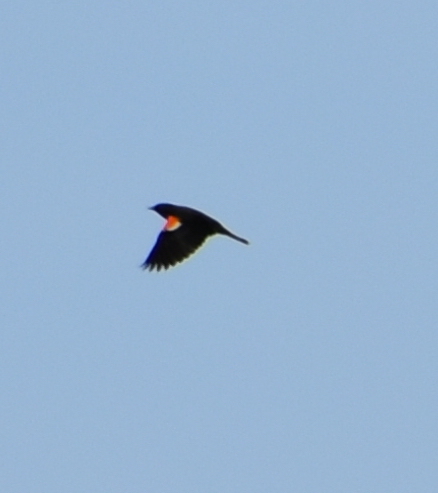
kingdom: Animalia
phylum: Chordata
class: Aves
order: Passeriformes
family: Icteridae
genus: Agelaius
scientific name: Agelaius phoeniceus
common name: Red-winged blackbird
